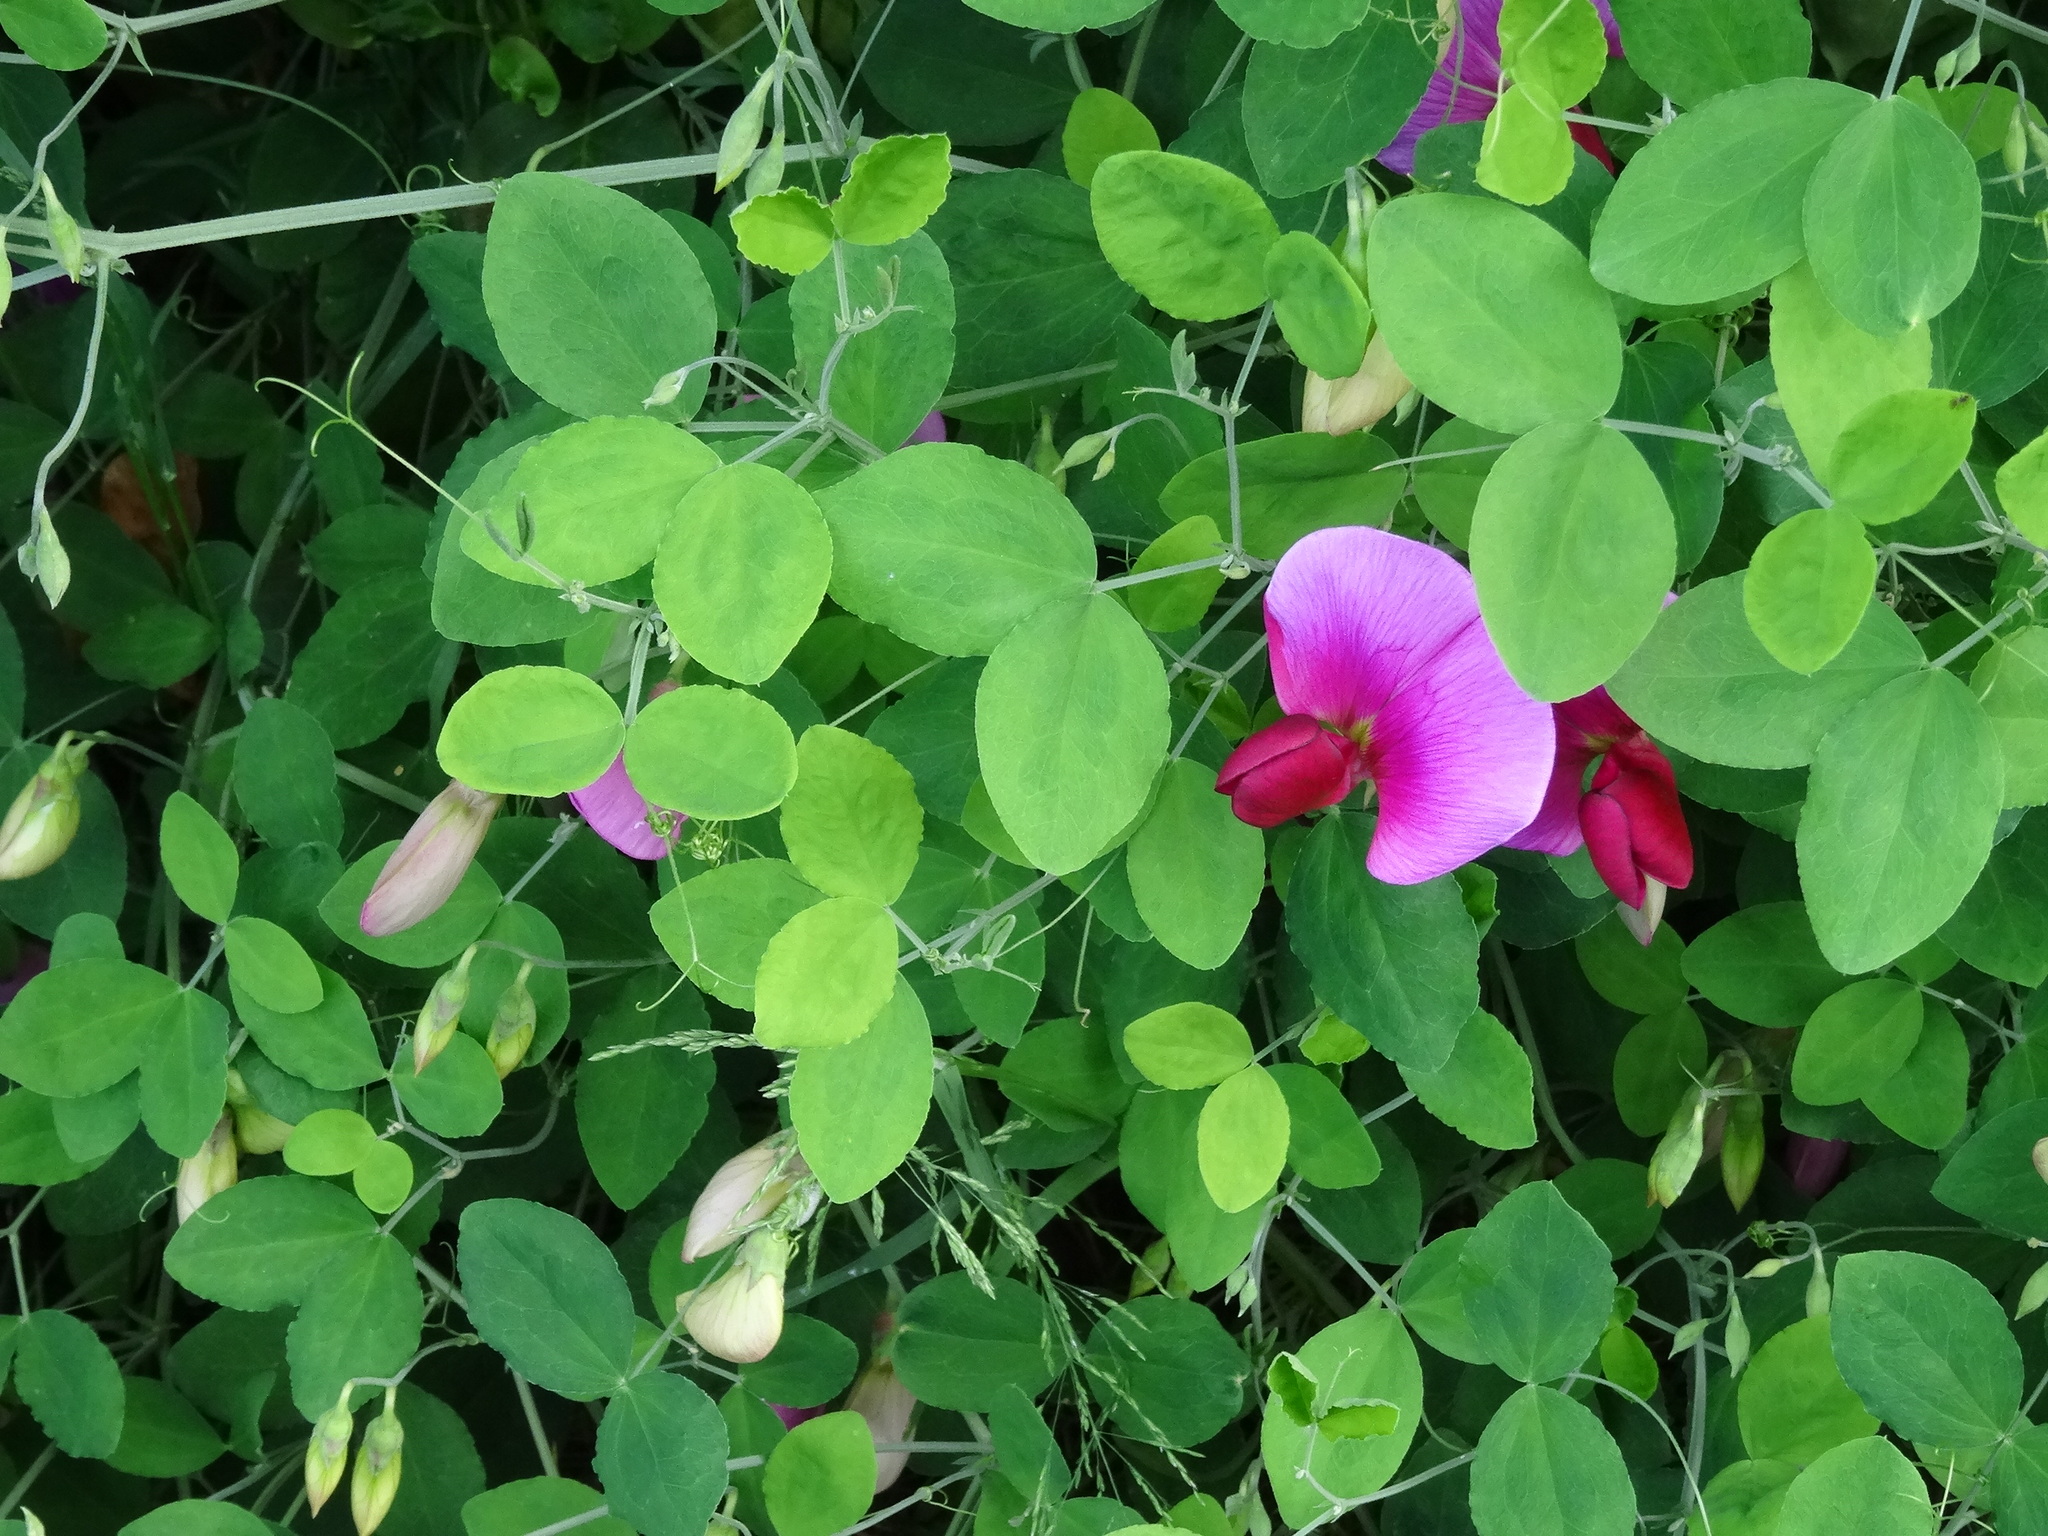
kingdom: Plantae
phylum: Tracheophyta
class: Magnoliopsida
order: Fabales
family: Fabaceae
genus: Lathyrus
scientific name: Lathyrus grandiflorus
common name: Two-flowered everlasting-pea
